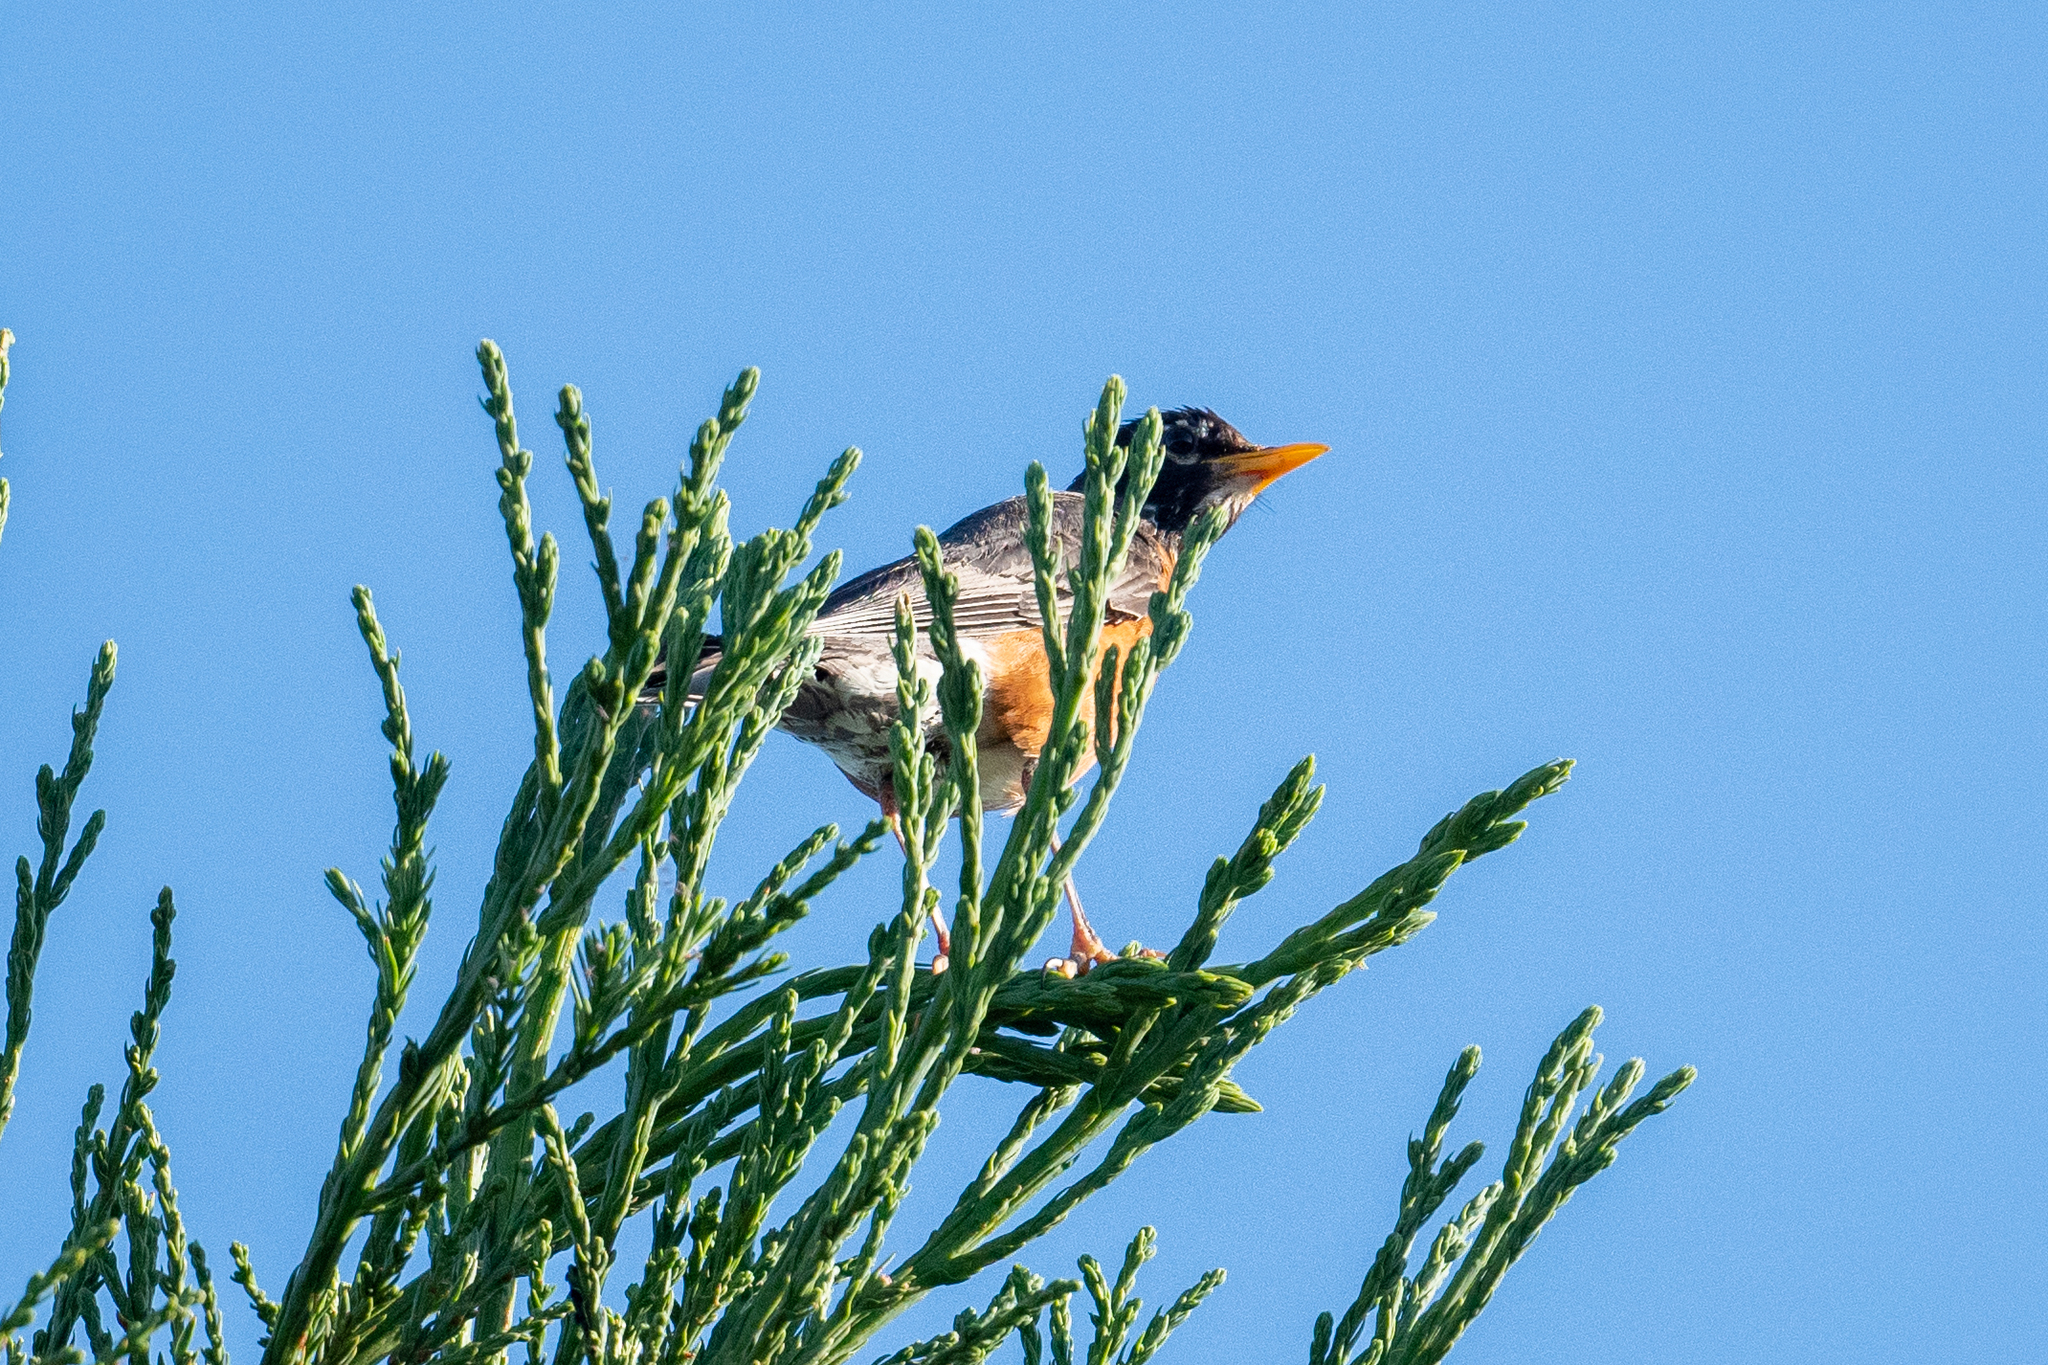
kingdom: Animalia
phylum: Chordata
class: Aves
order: Passeriformes
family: Turdidae
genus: Turdus
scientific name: Turdus migratorius
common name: American robin
